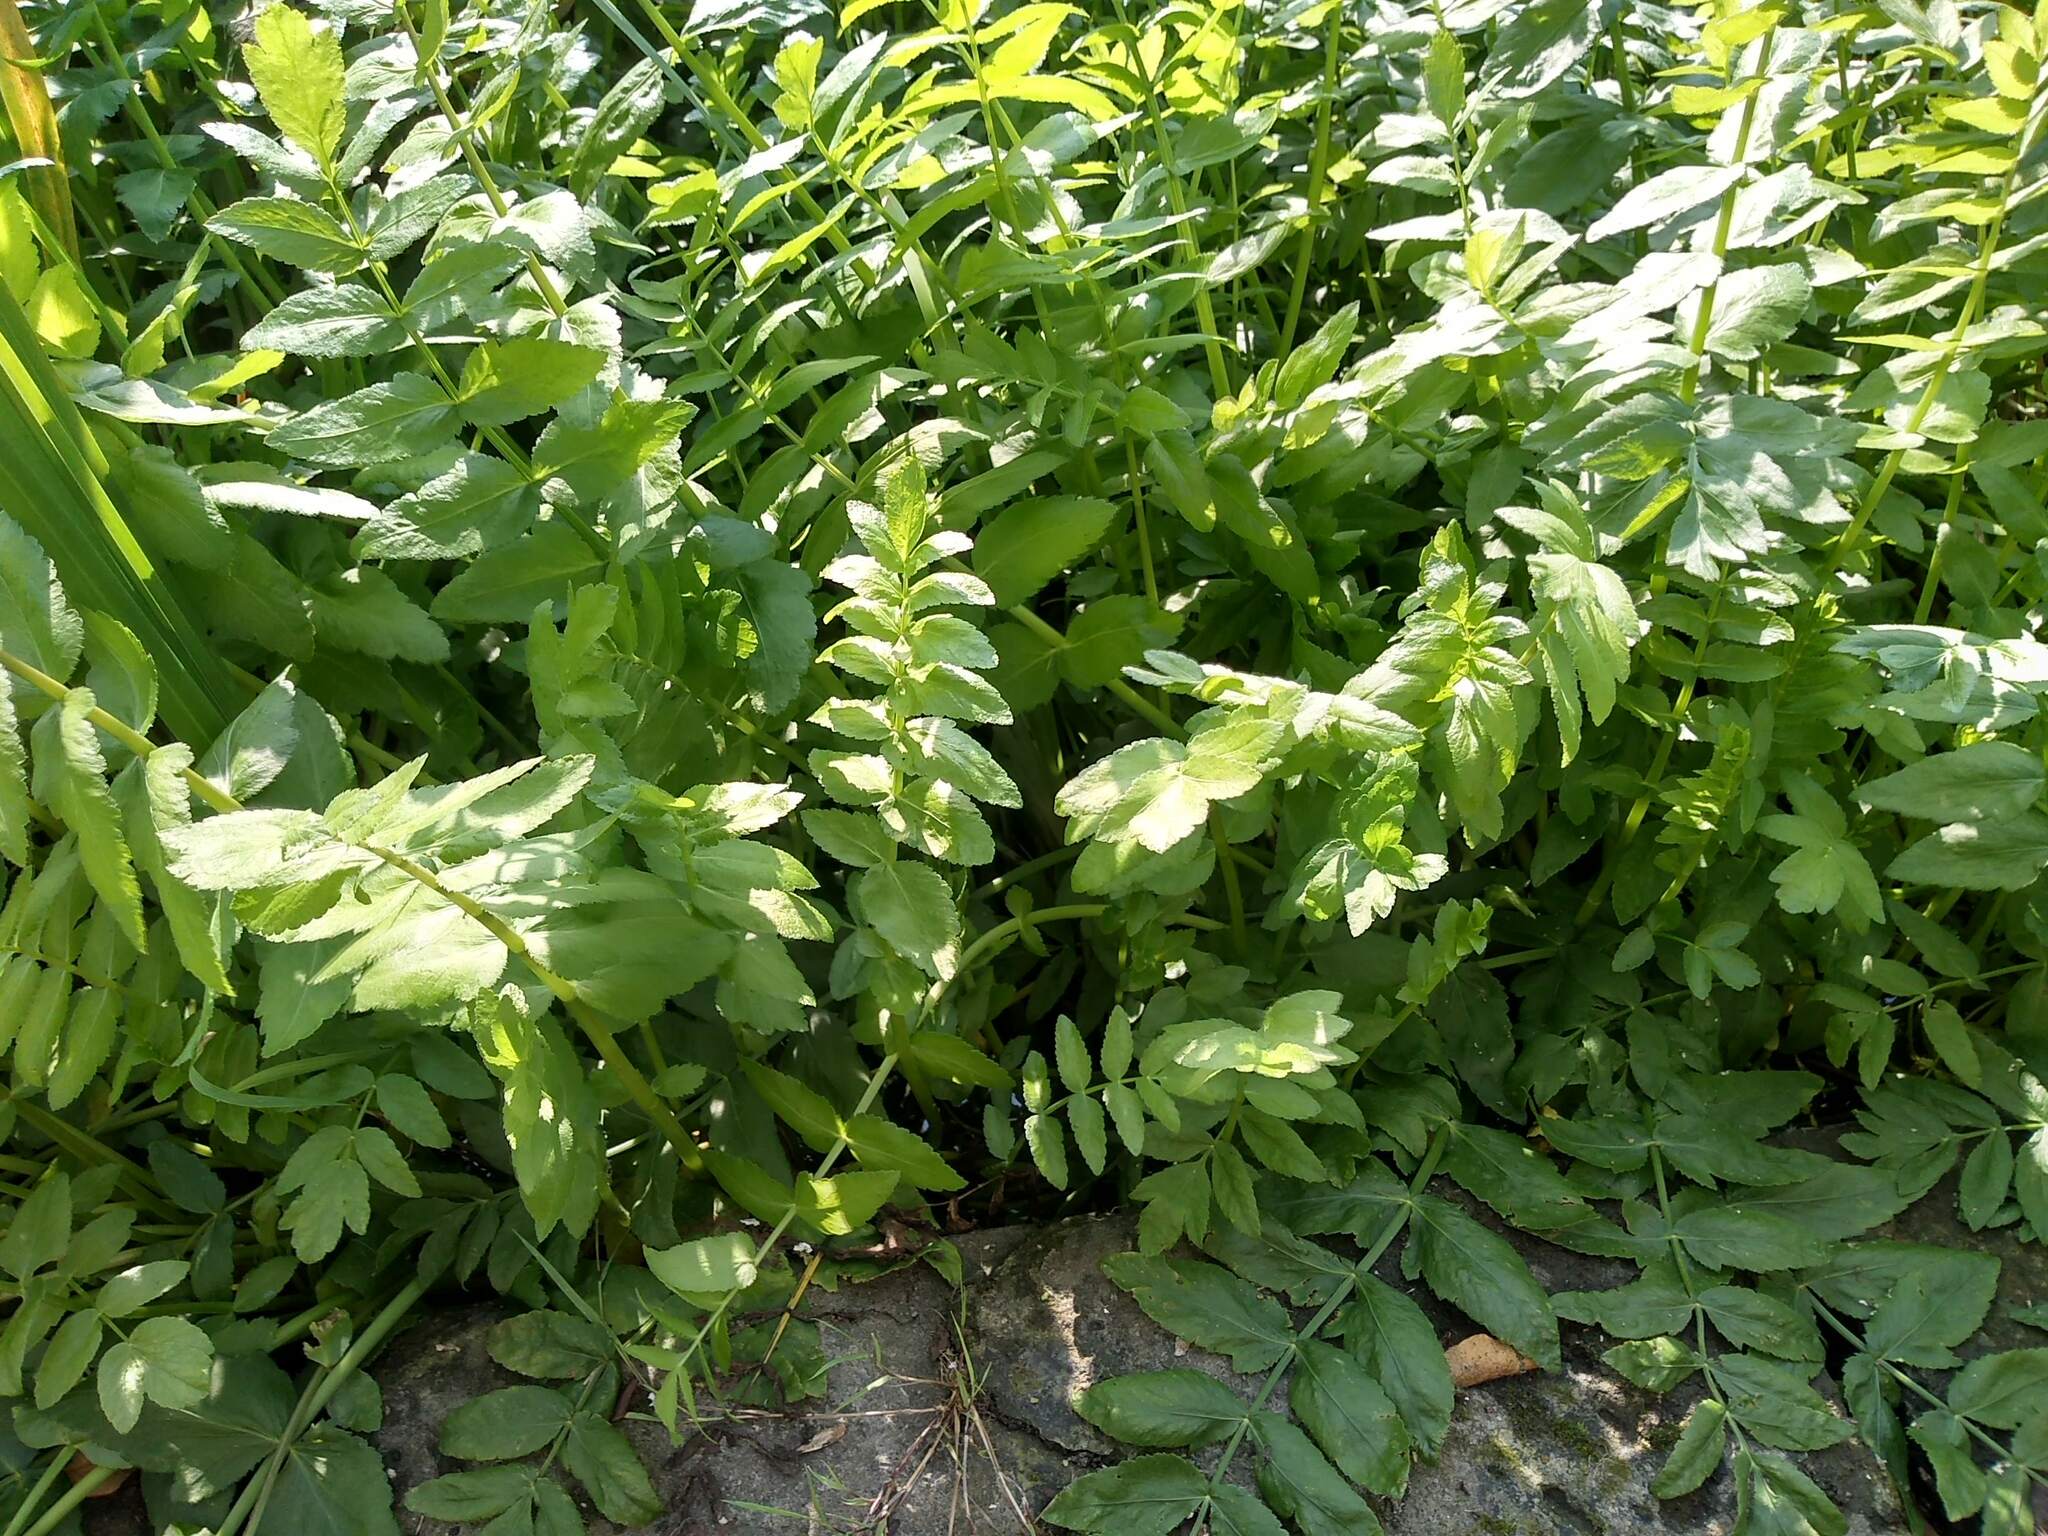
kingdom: Plantae
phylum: Tracheophyta
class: Magnoliopsida
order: Apiales
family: Apiaceae
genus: Berula
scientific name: Berula erecta
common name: Lesser water-parsnip
